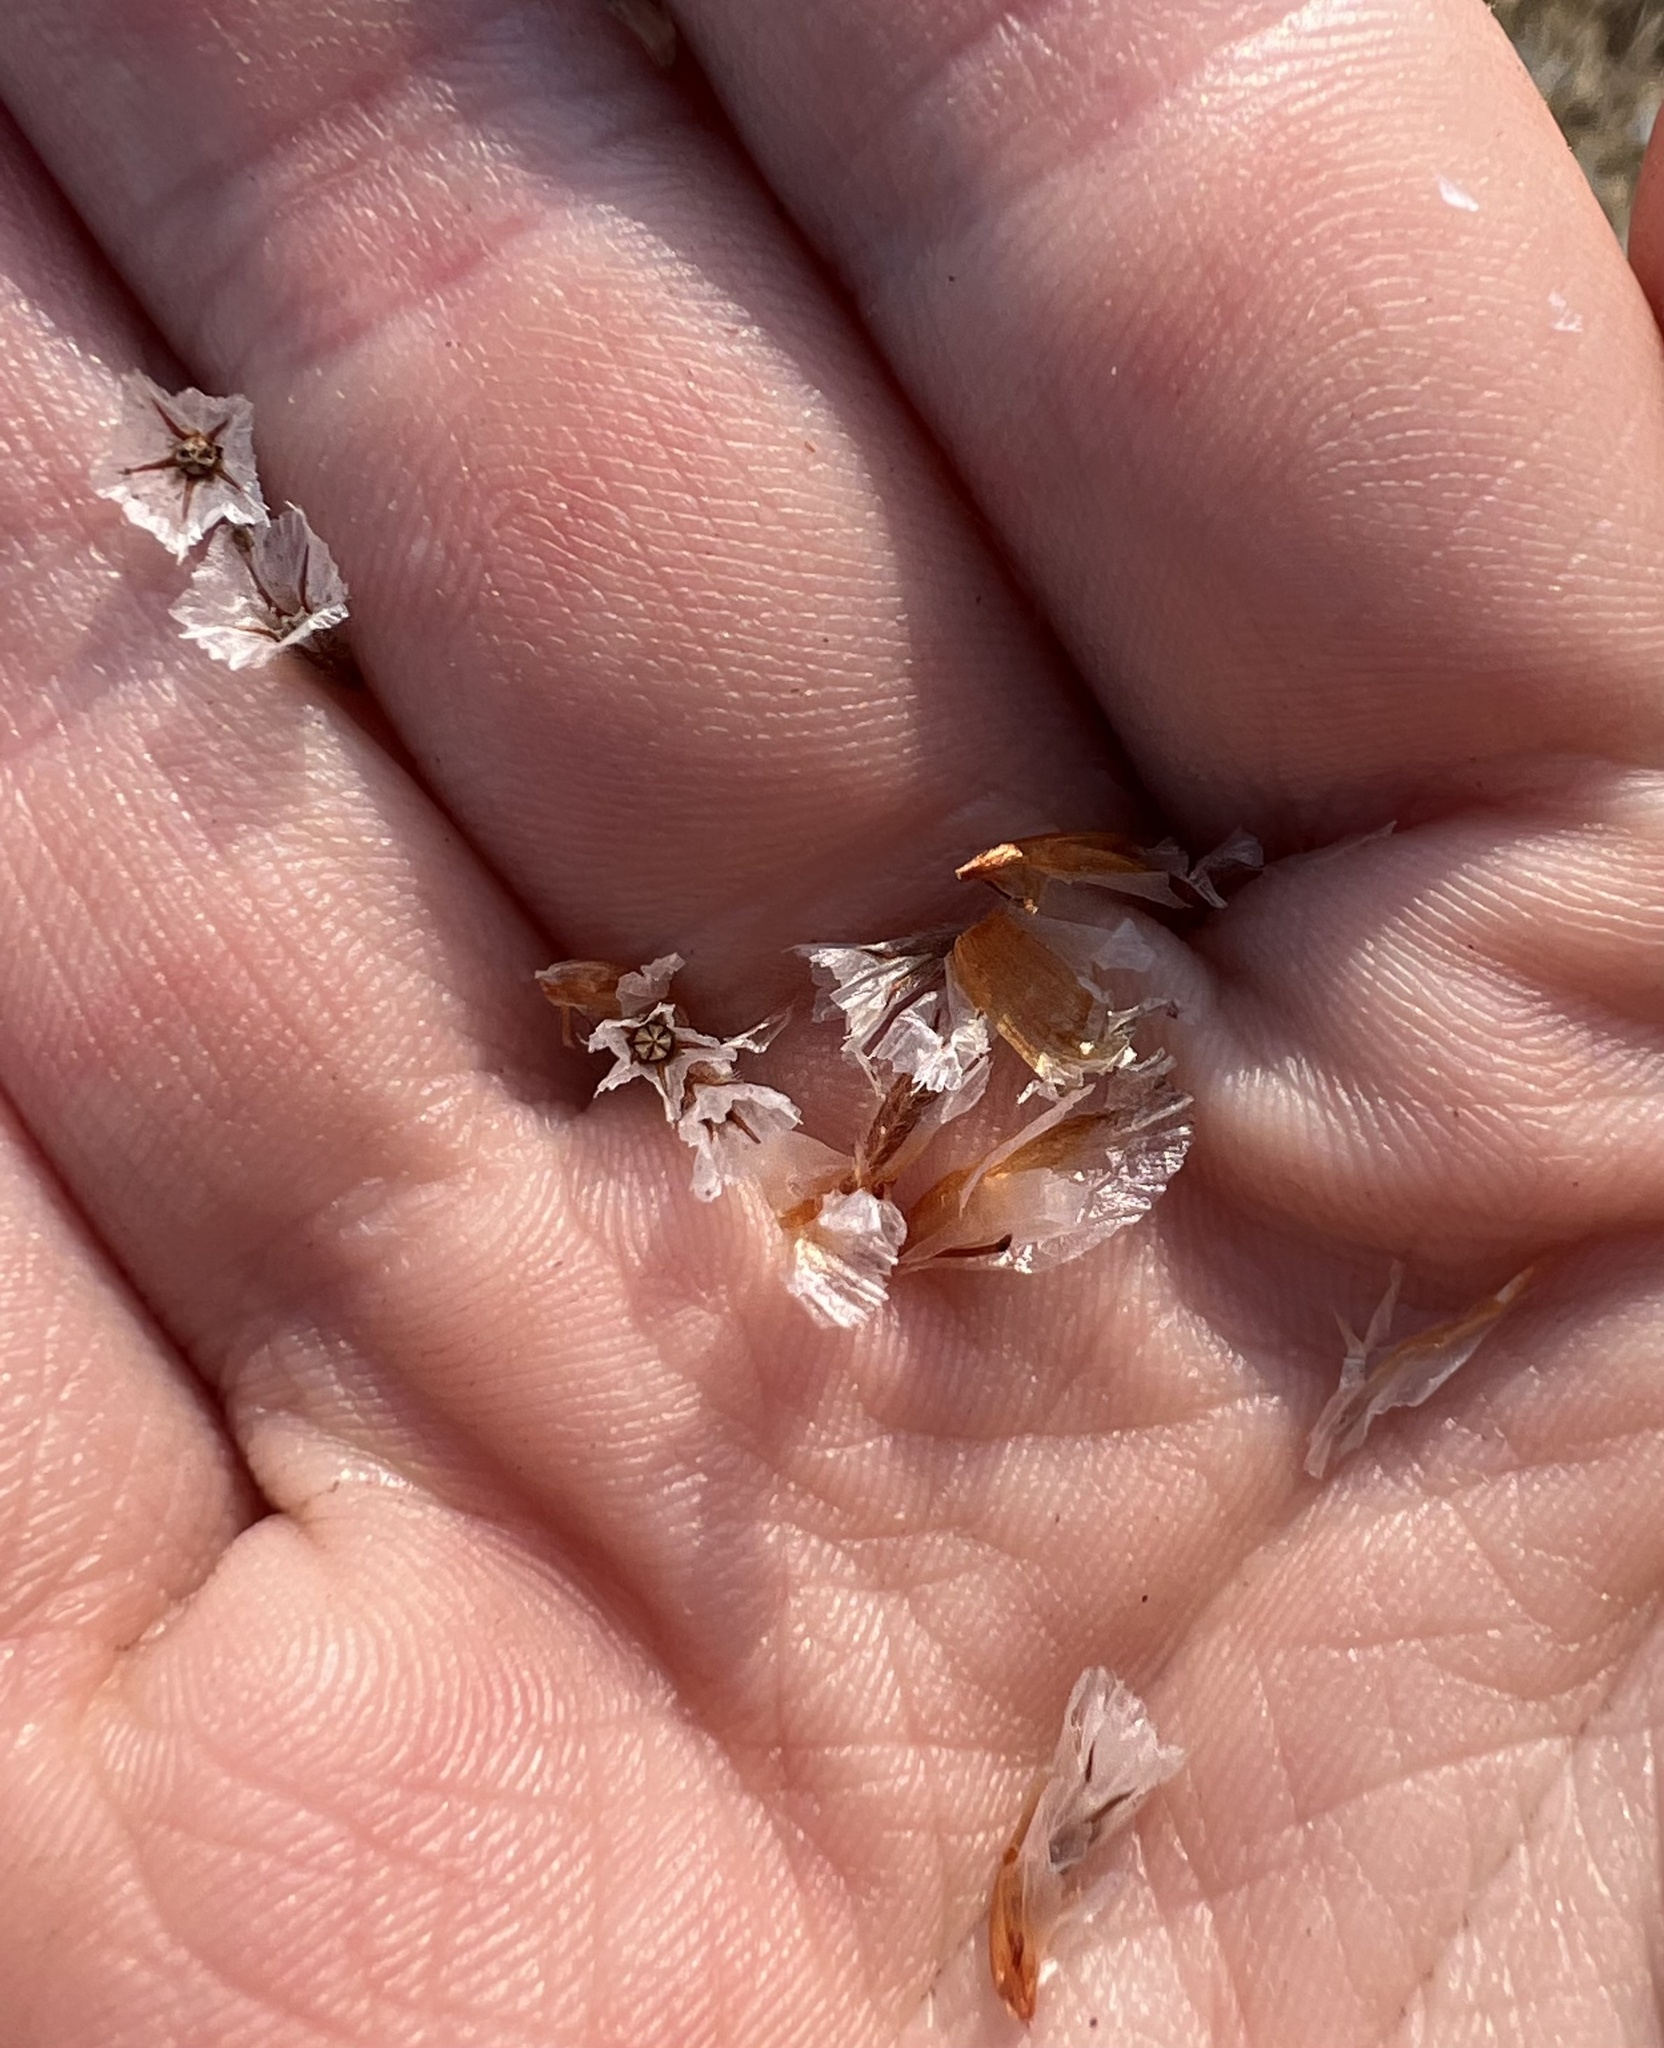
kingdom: Plantae
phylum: Tracheophyta
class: Magnoliopsida
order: Caryophyllales
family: Plumbaginaceae
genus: Armeria
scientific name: Armeria maritima
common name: Thrift
